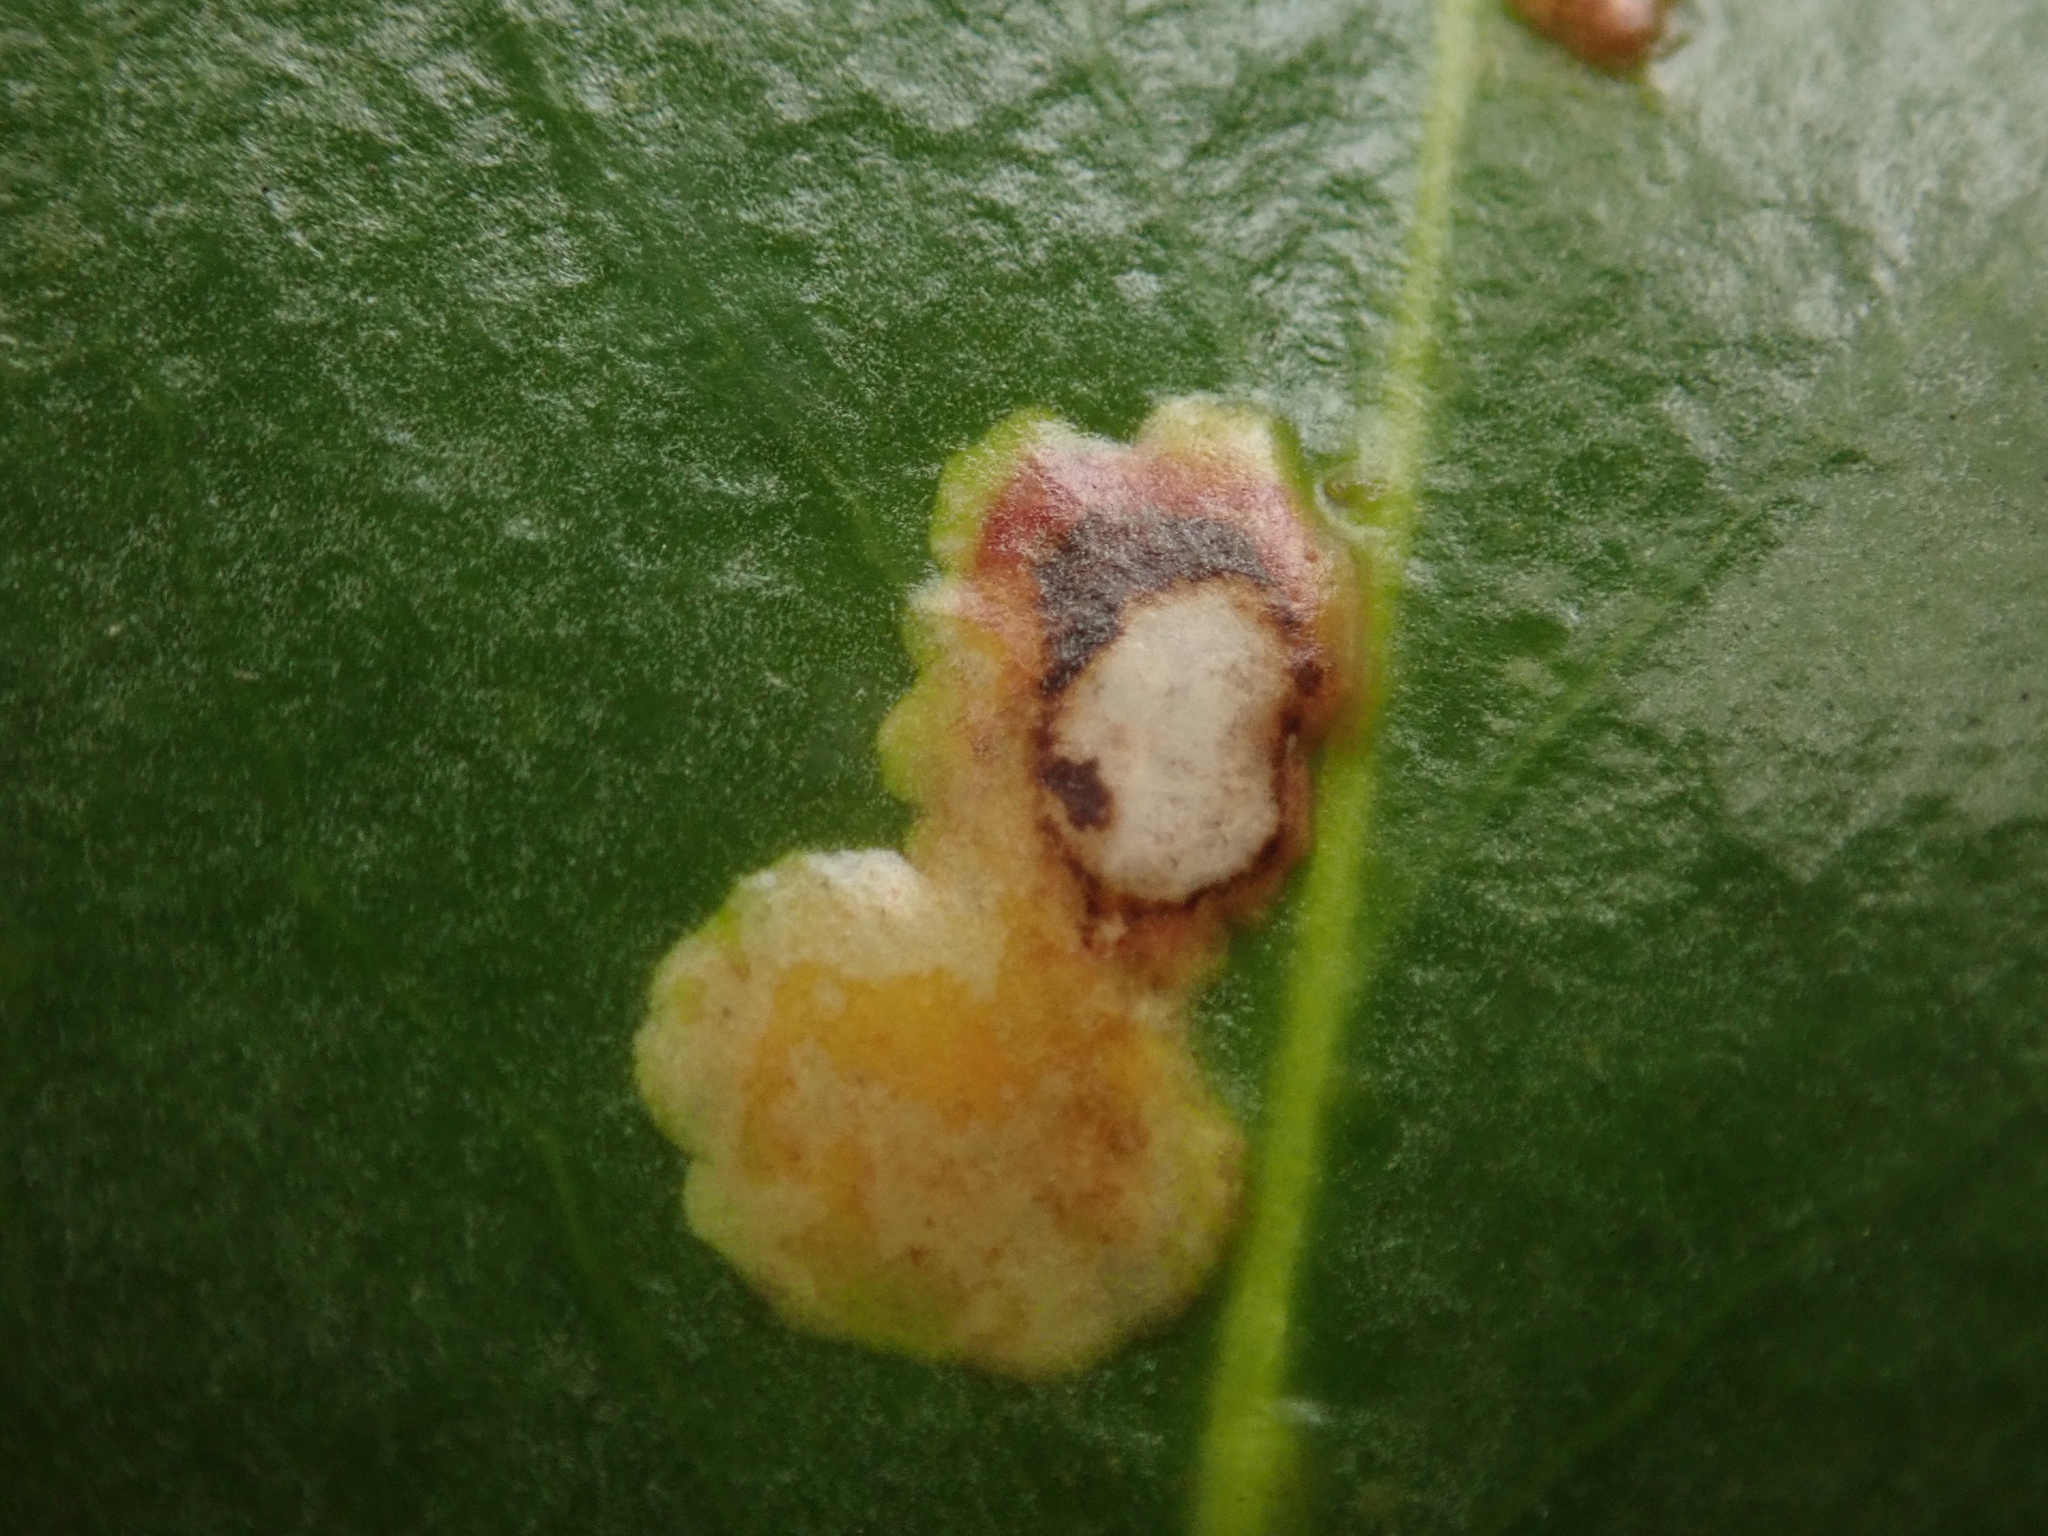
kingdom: Animalia
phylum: Arthropoda
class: Insecta
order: Diptera
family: Agromyzidae
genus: Phytomyza
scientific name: Phytomyza ilicis
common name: Holly leafminer
